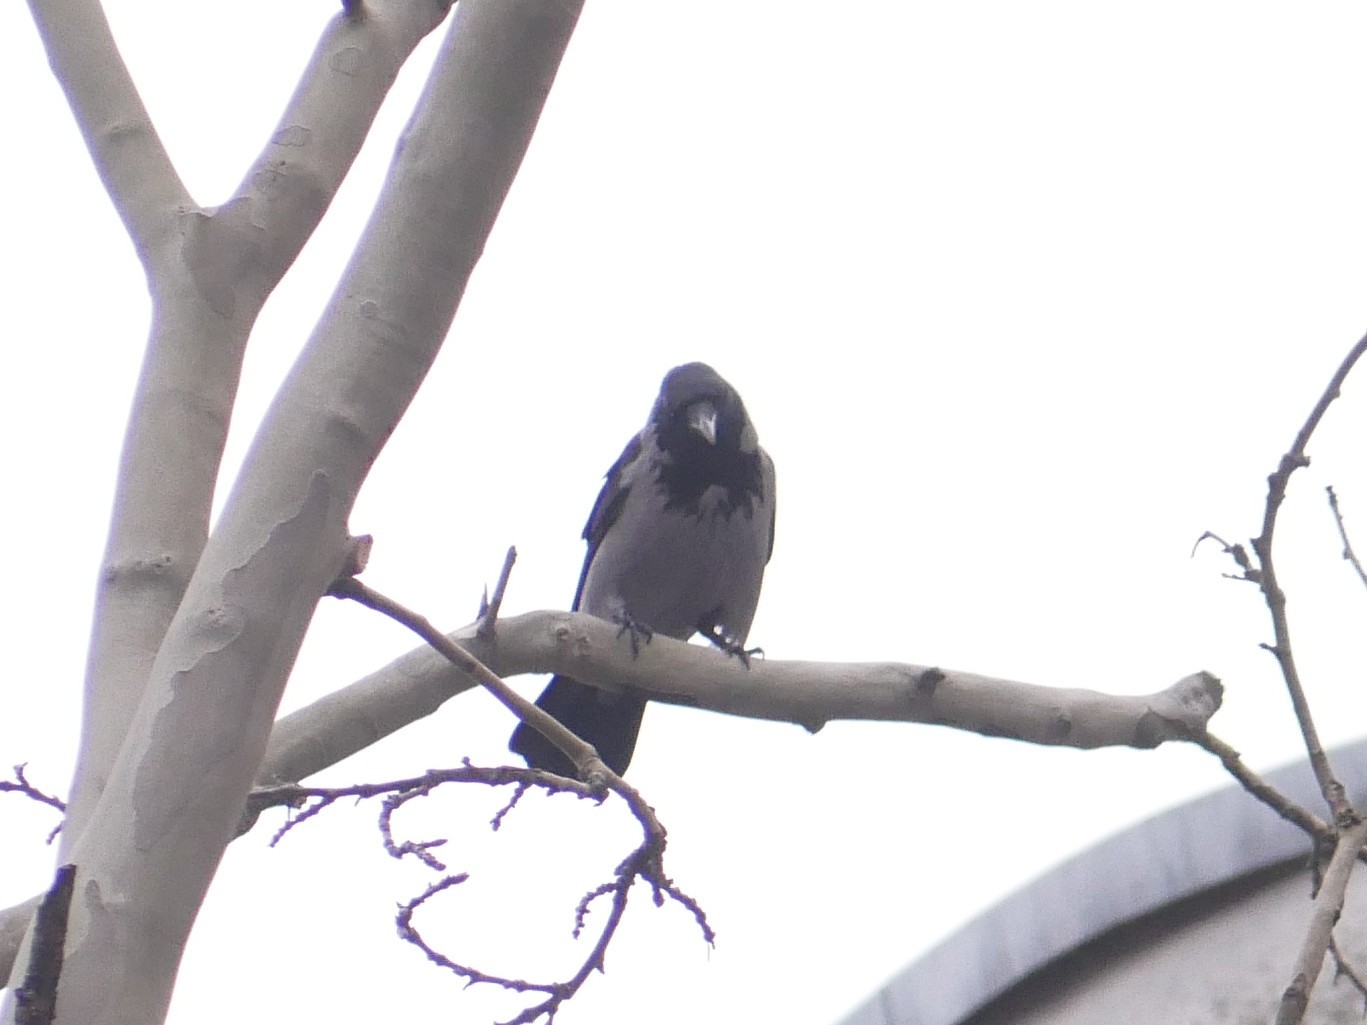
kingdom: Animalia
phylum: Chordata
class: Aves
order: Passeriformes
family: Corvidae
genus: Corvus
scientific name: Corvus cornix
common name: Hooded crow
